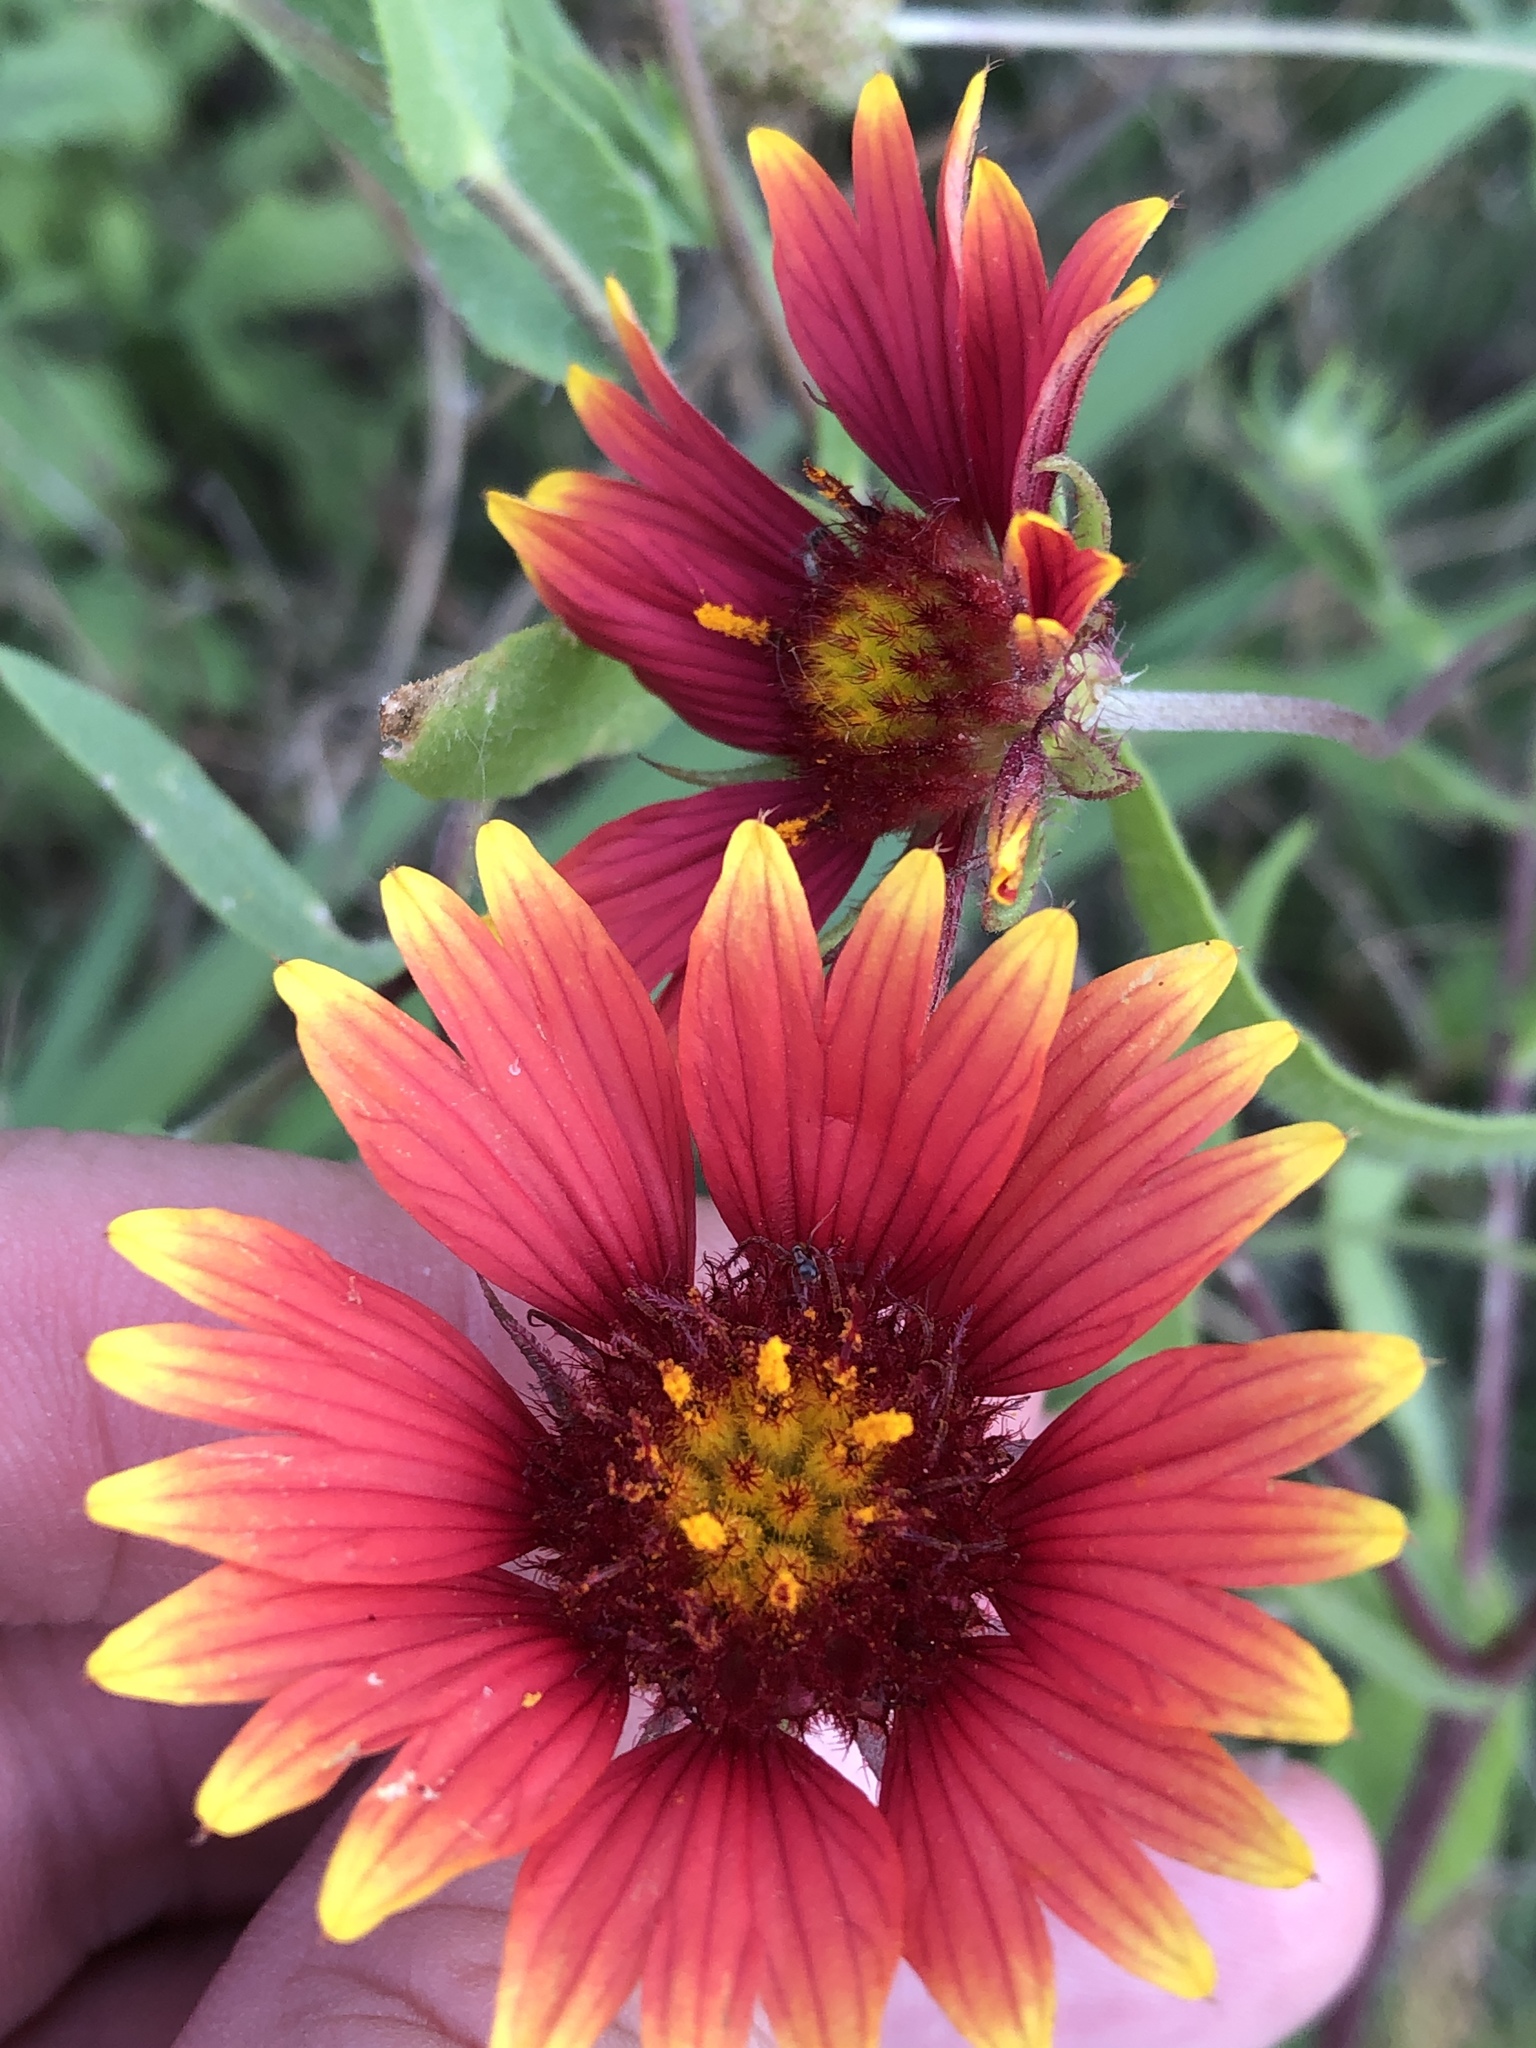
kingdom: Plantae
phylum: Tracheophyta
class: Magnoliopsida
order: Asterales
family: Asteraceae
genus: Gaillardia
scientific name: Gaillardia pulchella
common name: Firewheel
